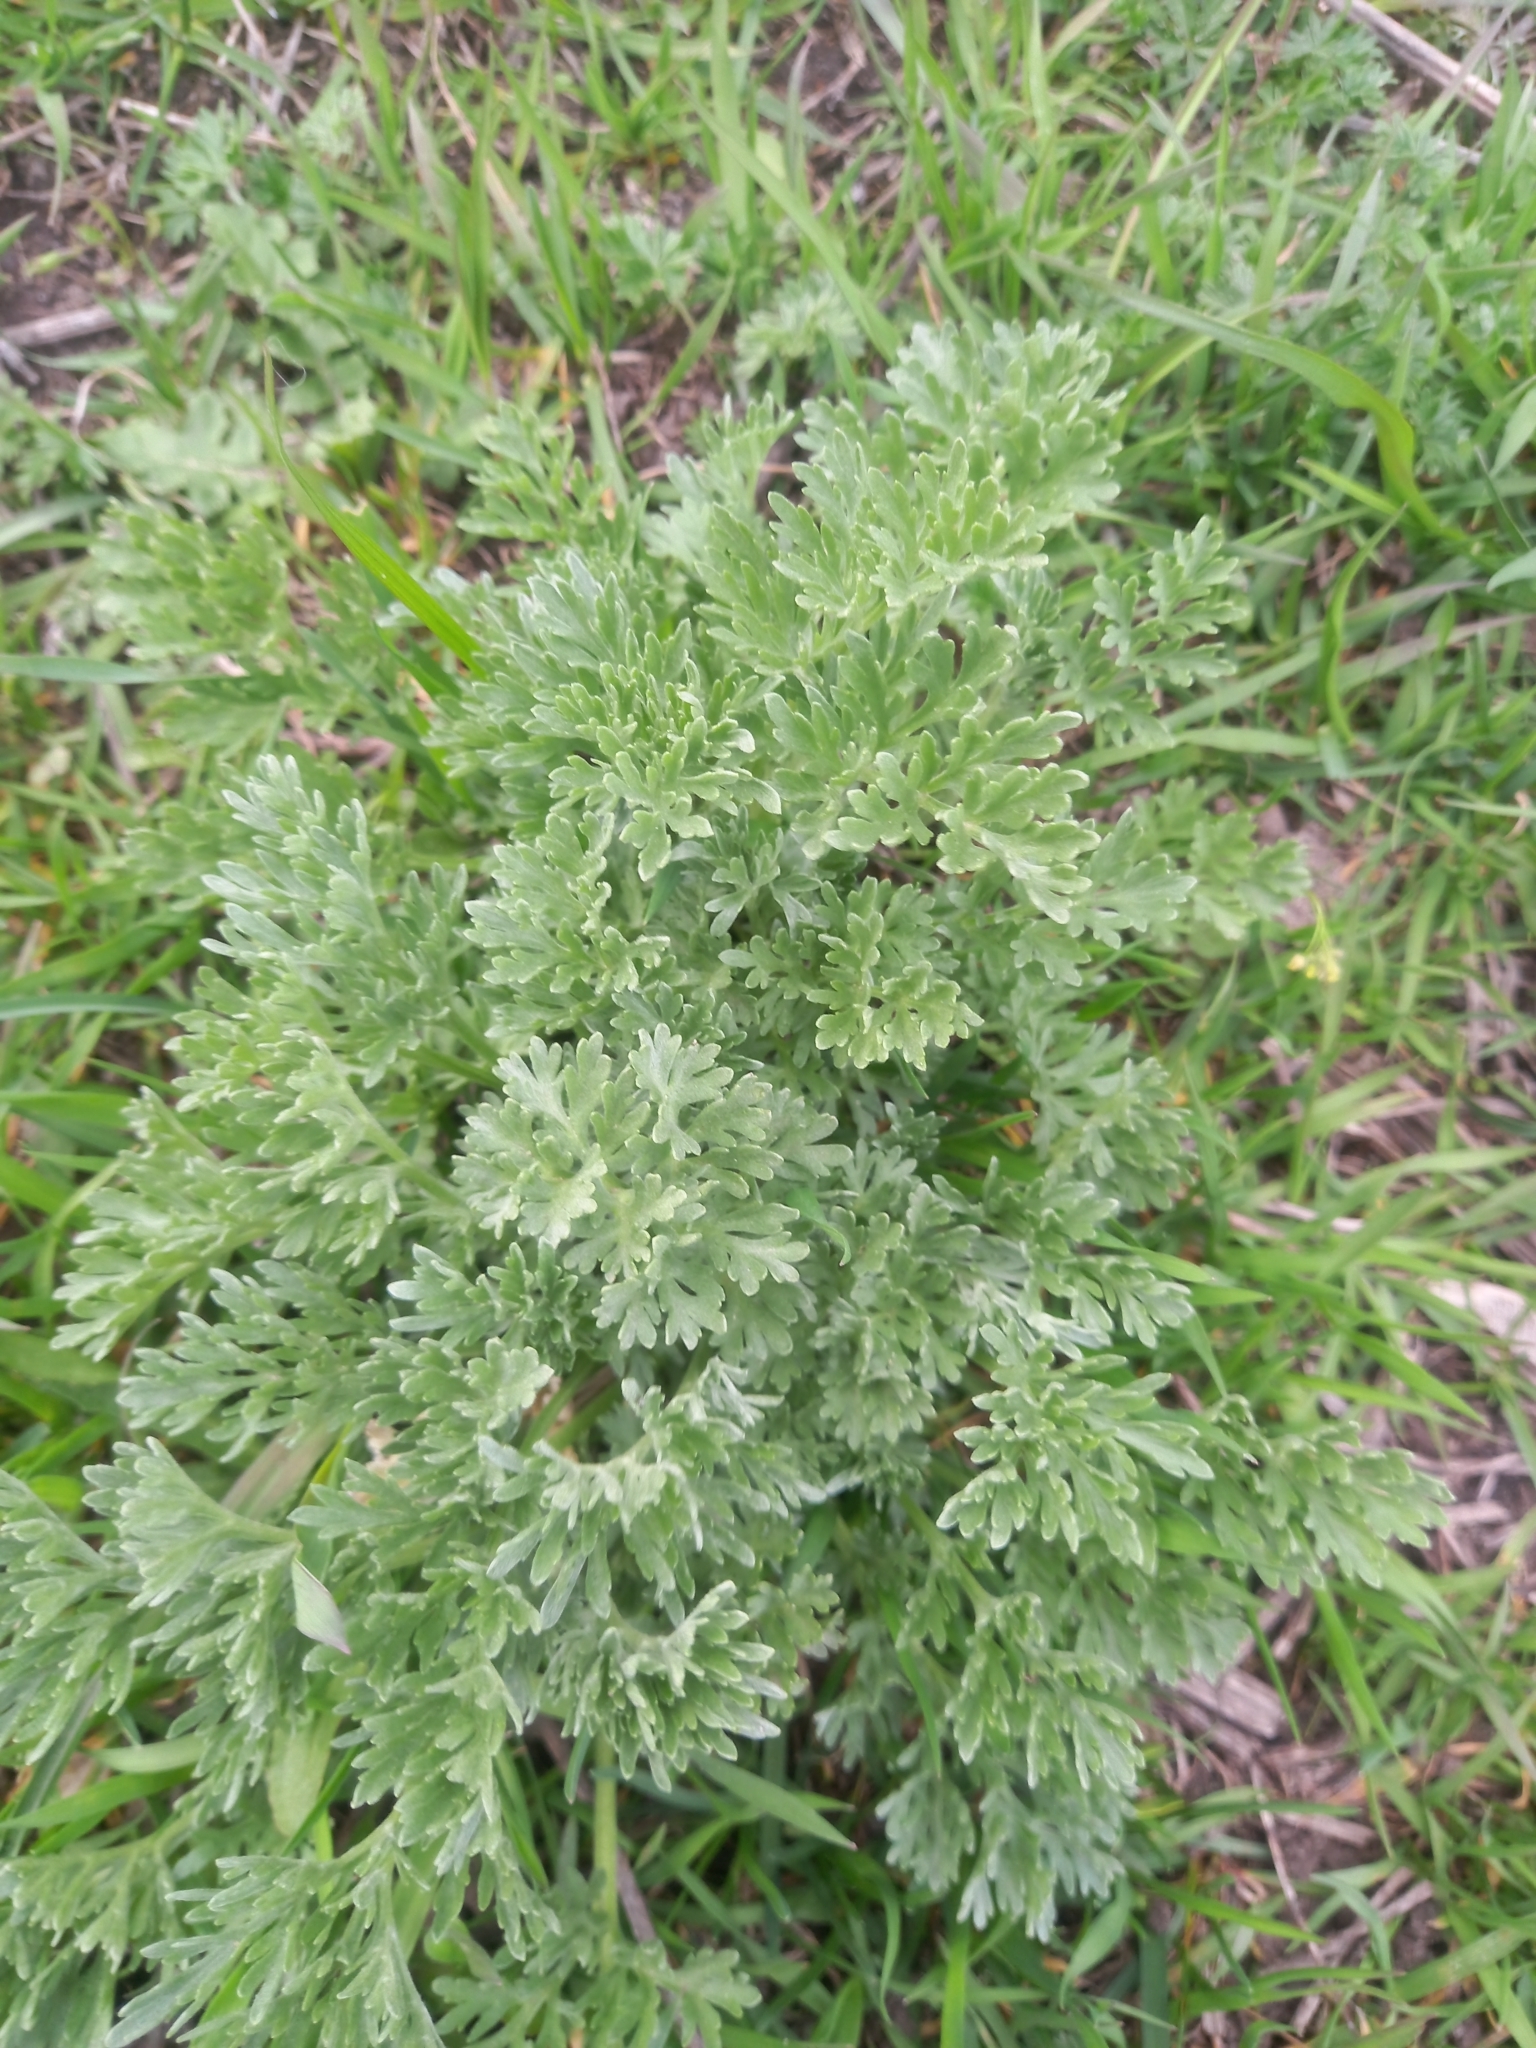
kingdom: Plantae
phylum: Tracheophyta
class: Magnoliopsida
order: Asterales
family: Asteraceae
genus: Artemisia
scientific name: Artemisia absinthium
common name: Wormwood
